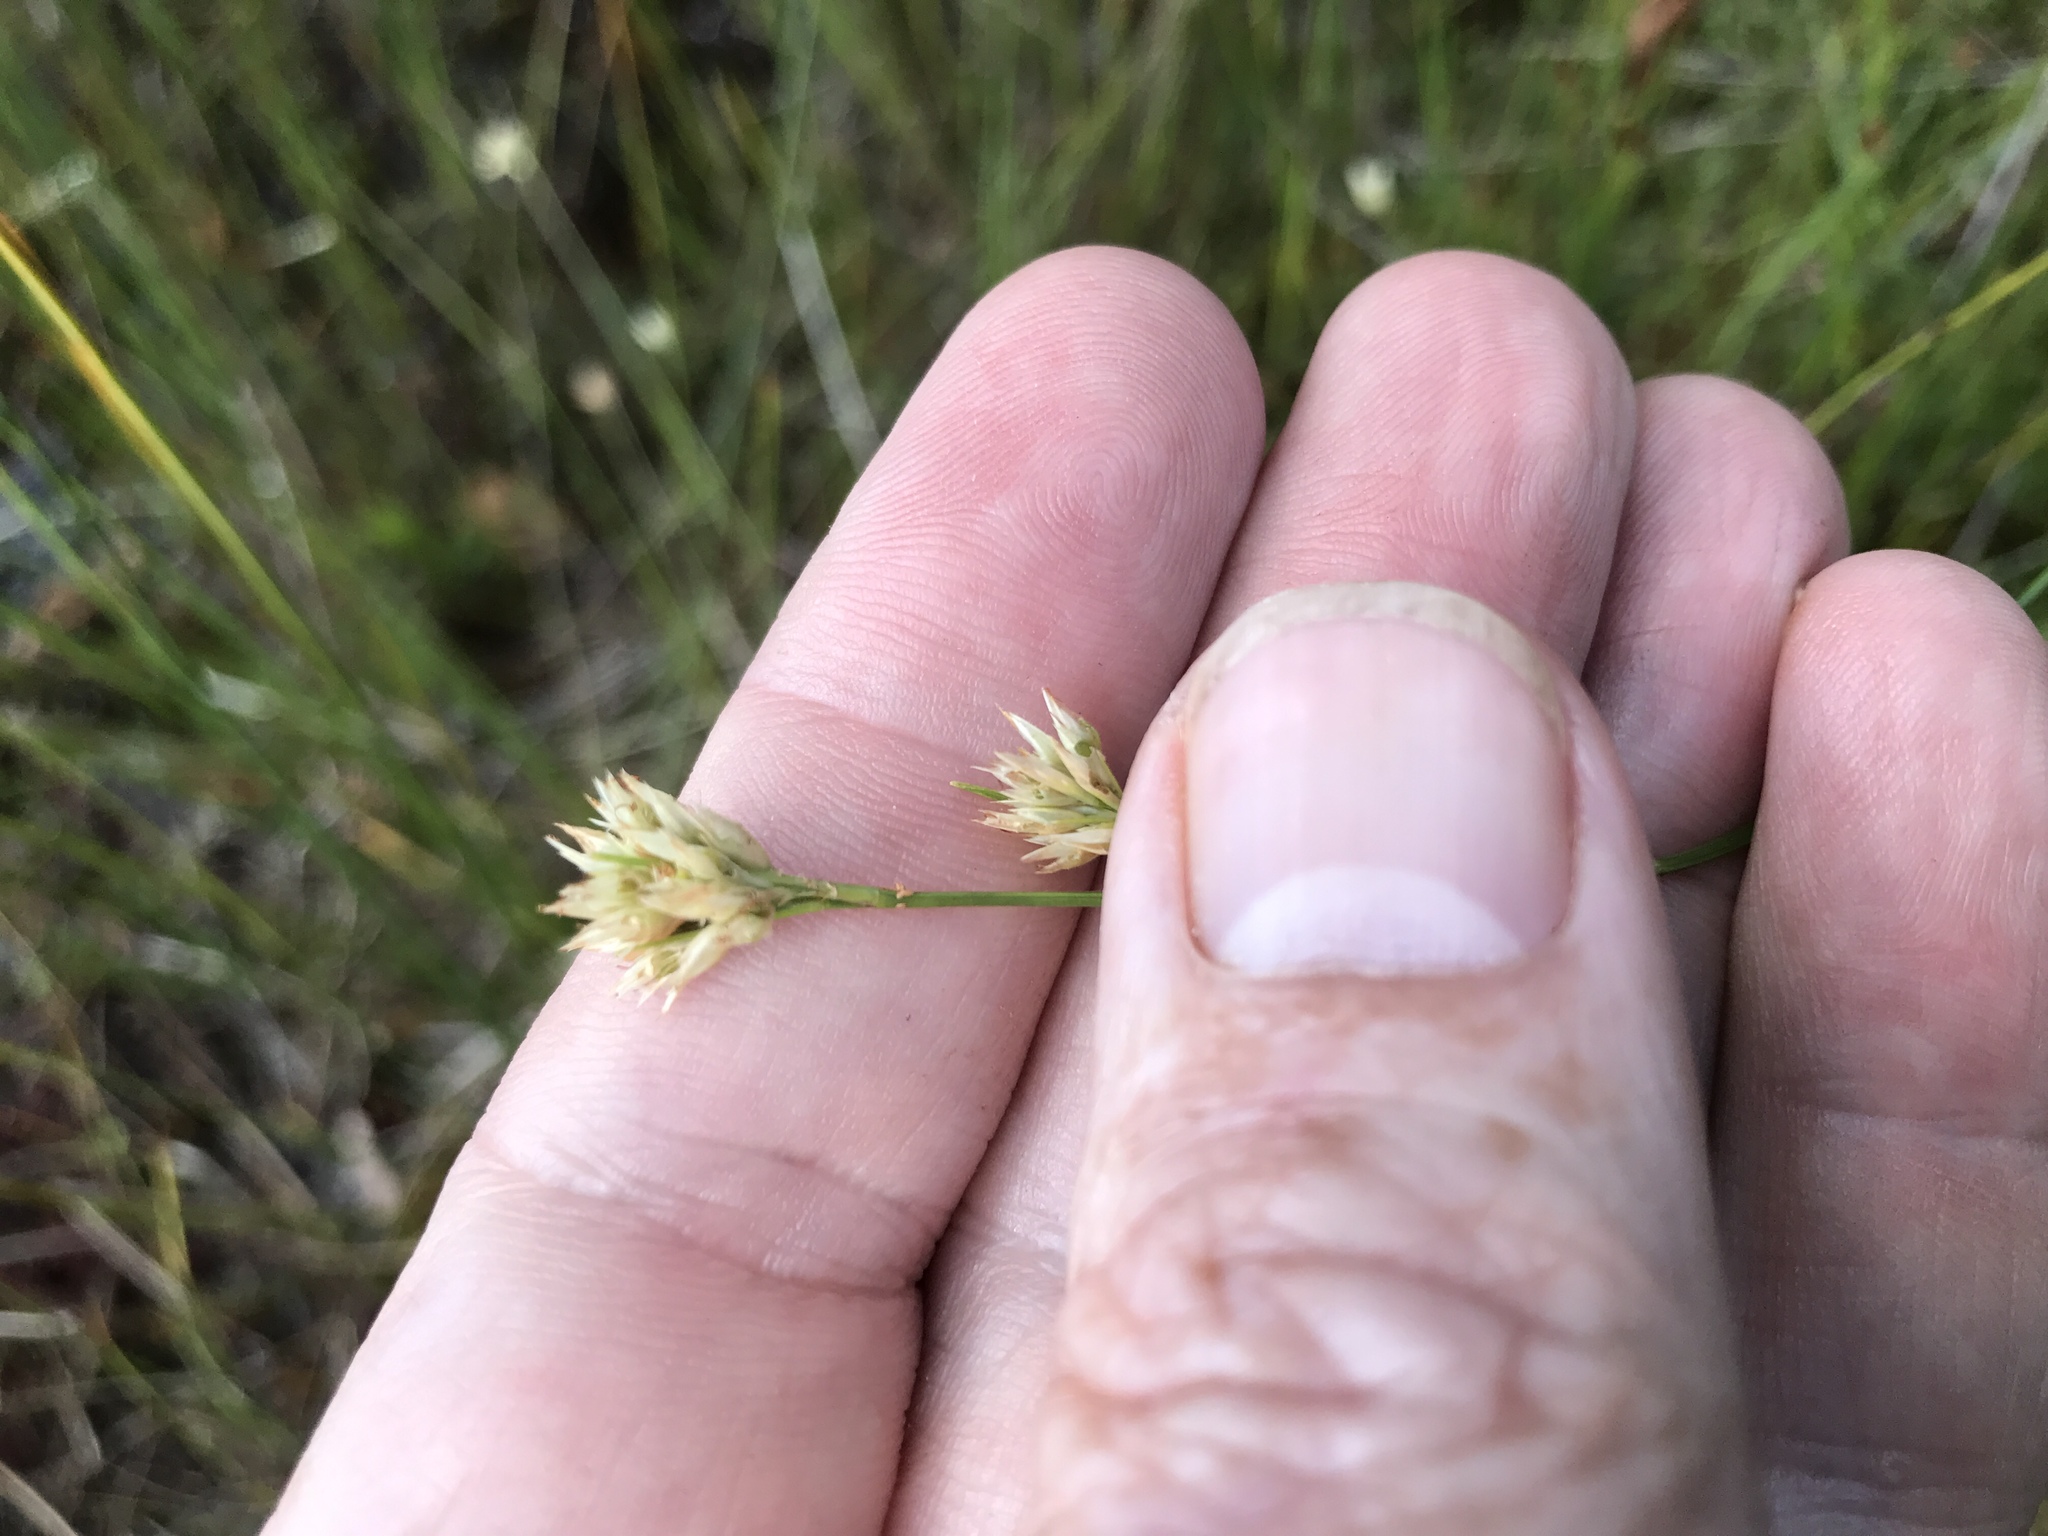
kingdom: Plantae
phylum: Tracheophyta
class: Liliopsida
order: Poales
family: Cyperaceae
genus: Rhynchospora
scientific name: Rhynchospora alba
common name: White beak-sedge
